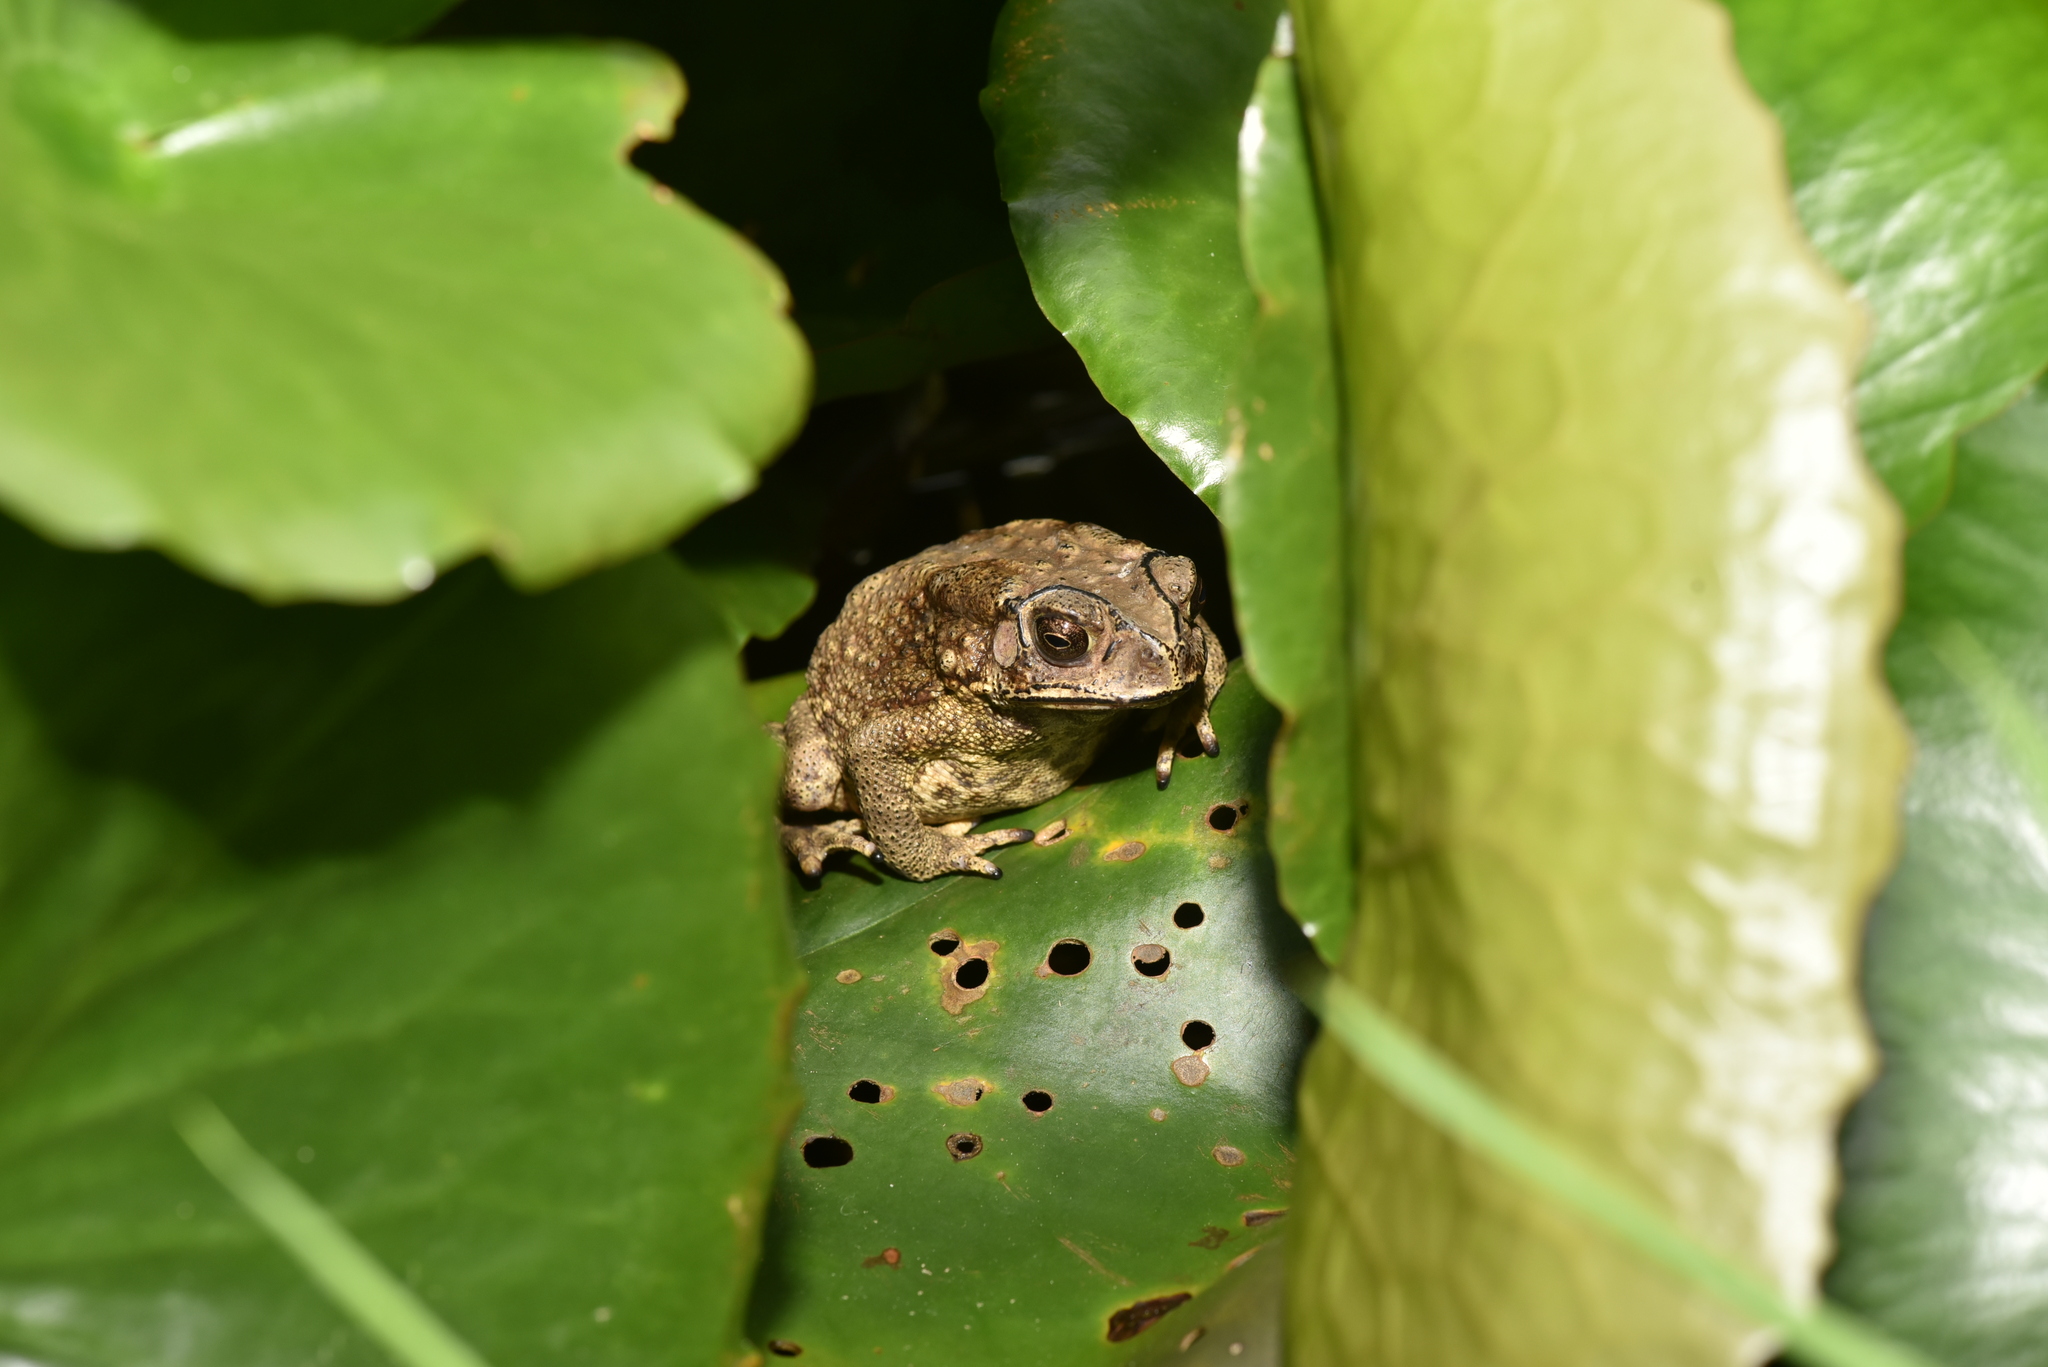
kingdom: Animalia
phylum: Chordata
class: Amphibia
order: Anura
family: Bufonidae
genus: Duttaphrynus
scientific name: Duttaphrynus melanostictus
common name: Common sunda toad
